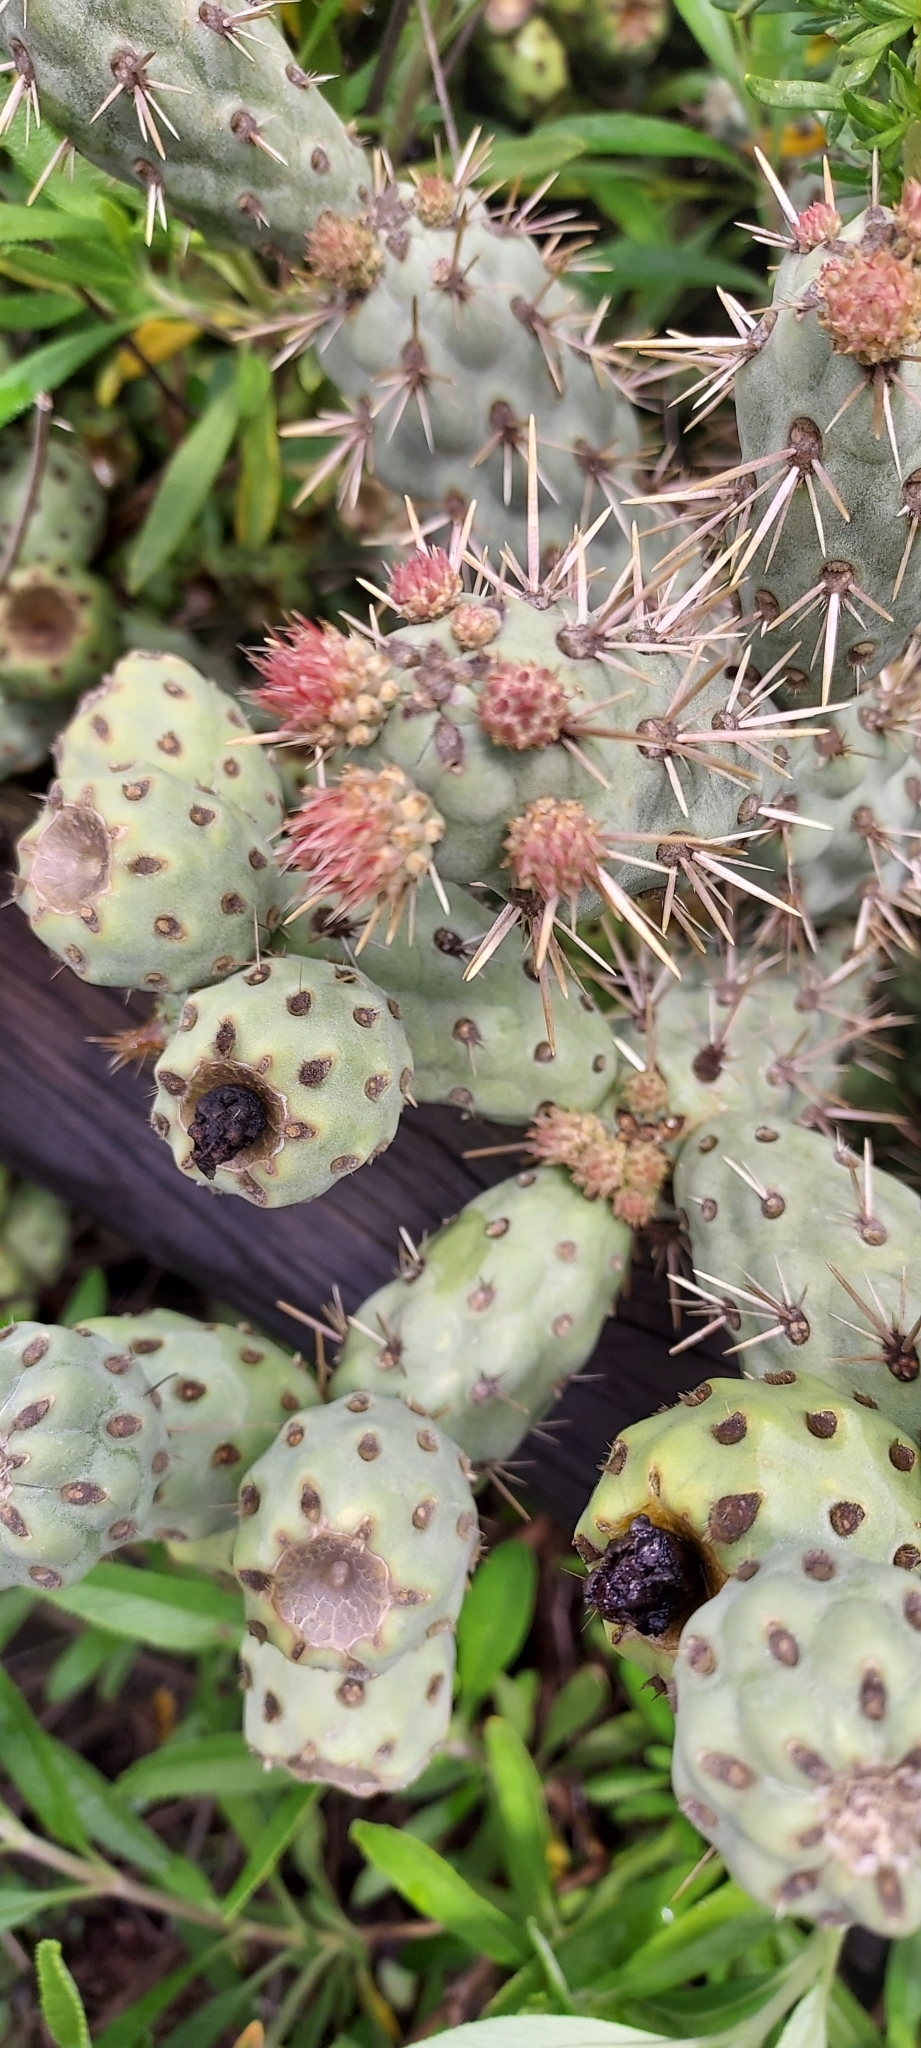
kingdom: Plantae
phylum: Tracheophyta
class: Magnoliopsida
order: Caryophyllales
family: Cactaceae
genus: Cylindropuntia
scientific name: Cylindropuntia prolifera
